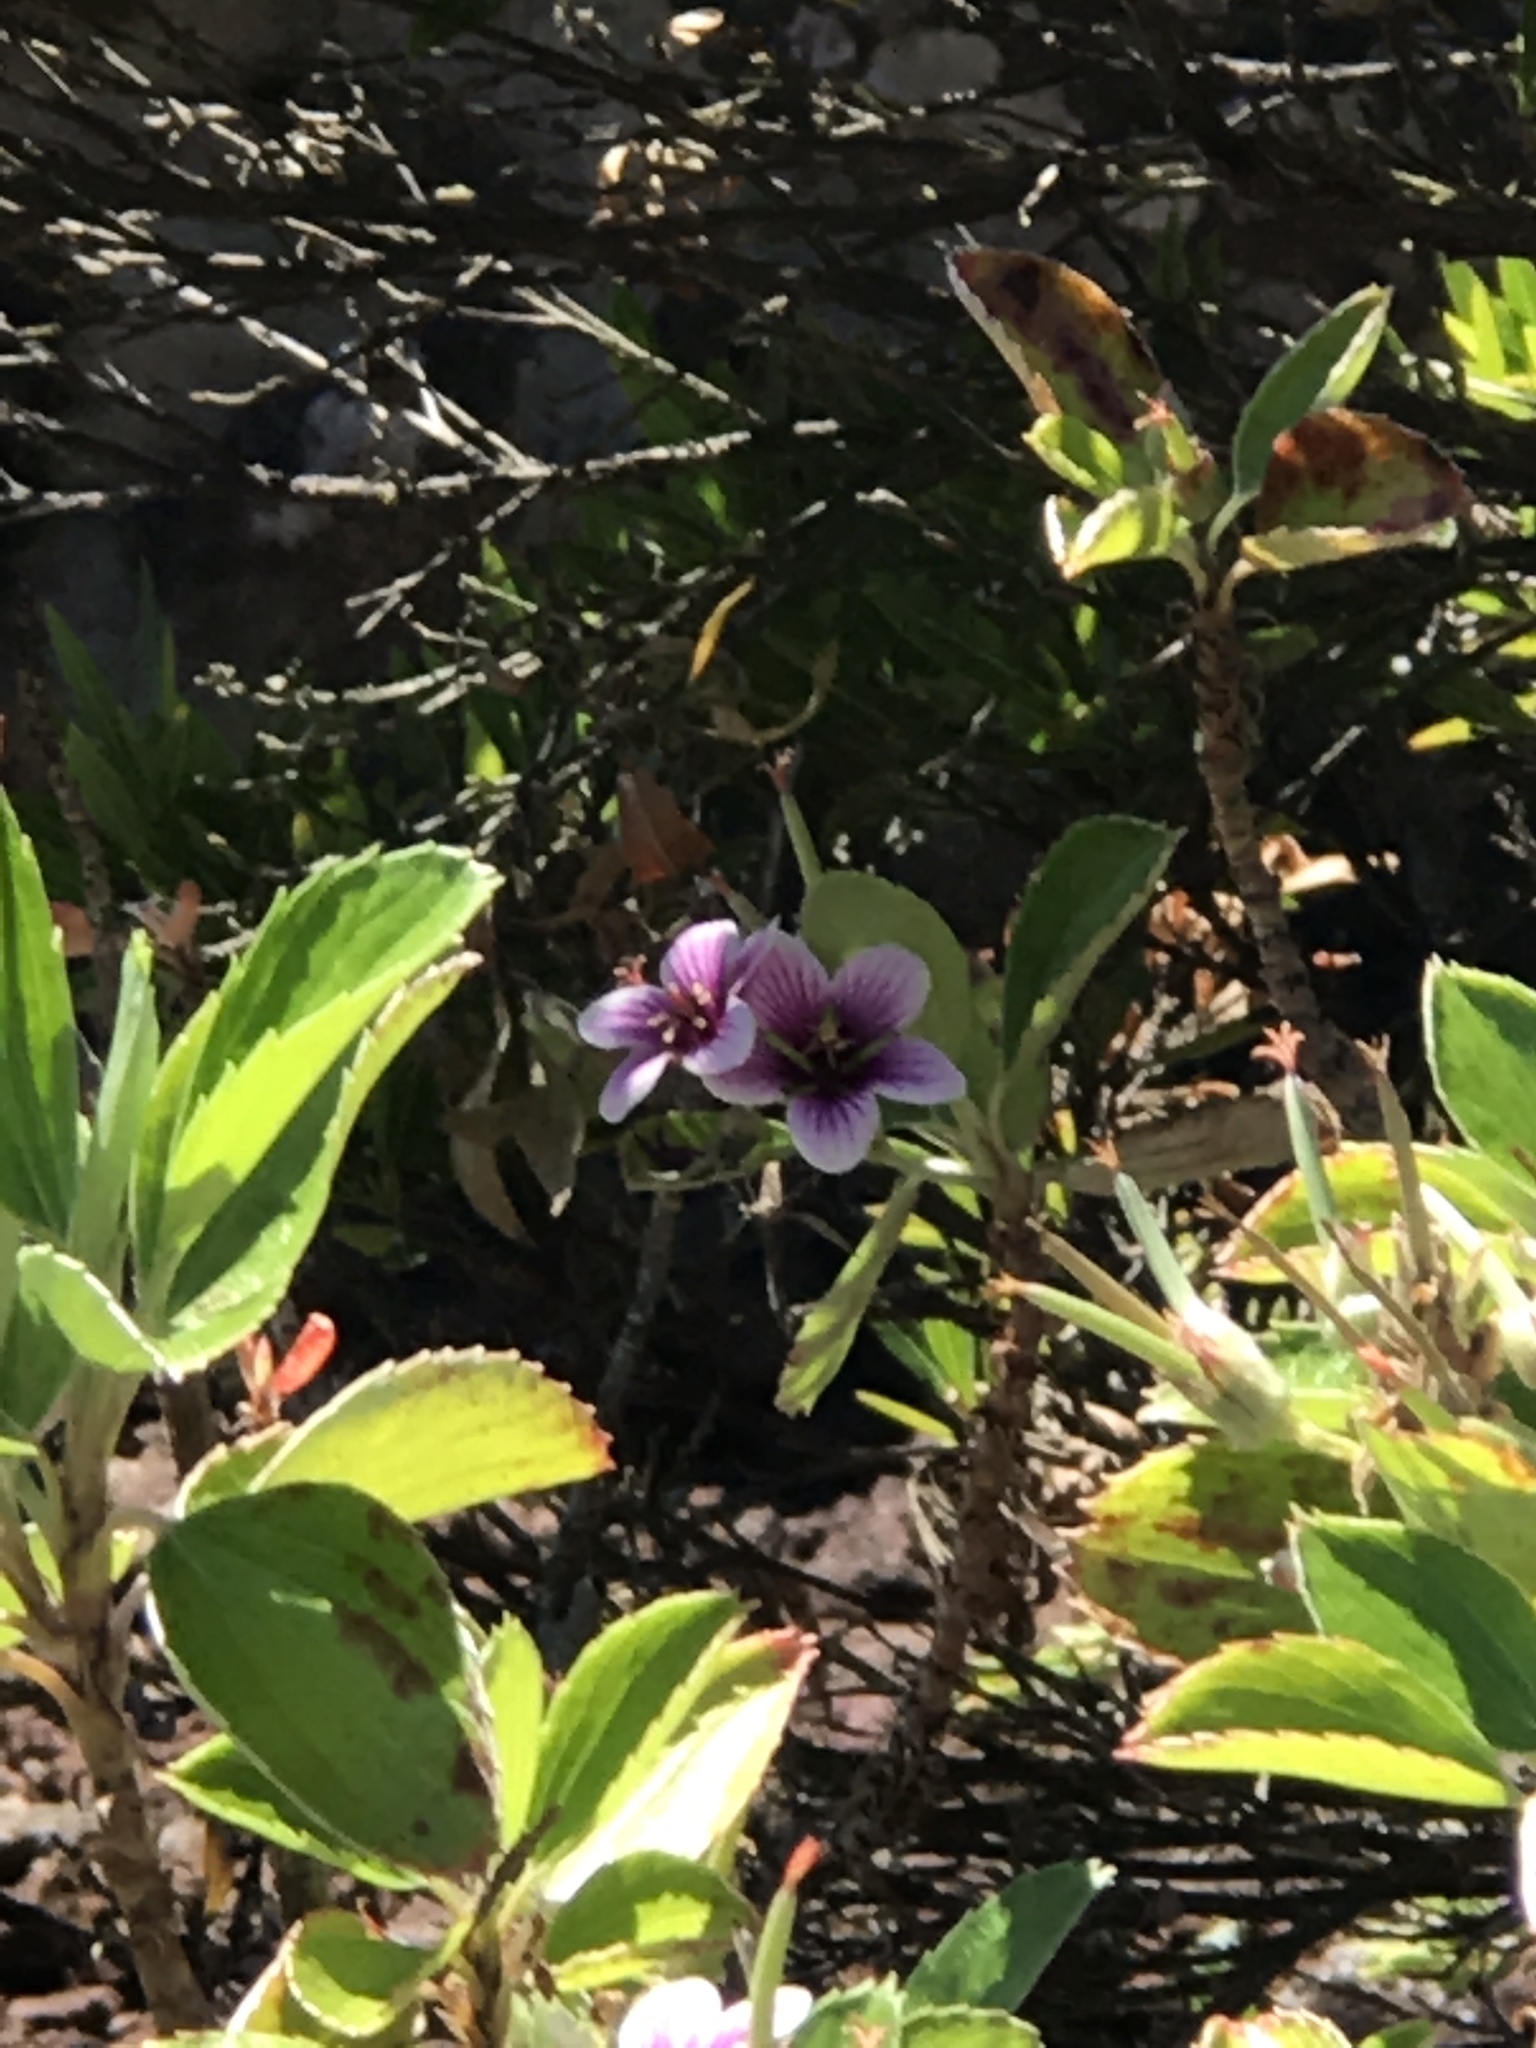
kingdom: Plantae
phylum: Tracheophyta
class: Magnoliopsida
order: Geraniales
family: Geraniaceae
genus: Geranium
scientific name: Geranium multiflorum
